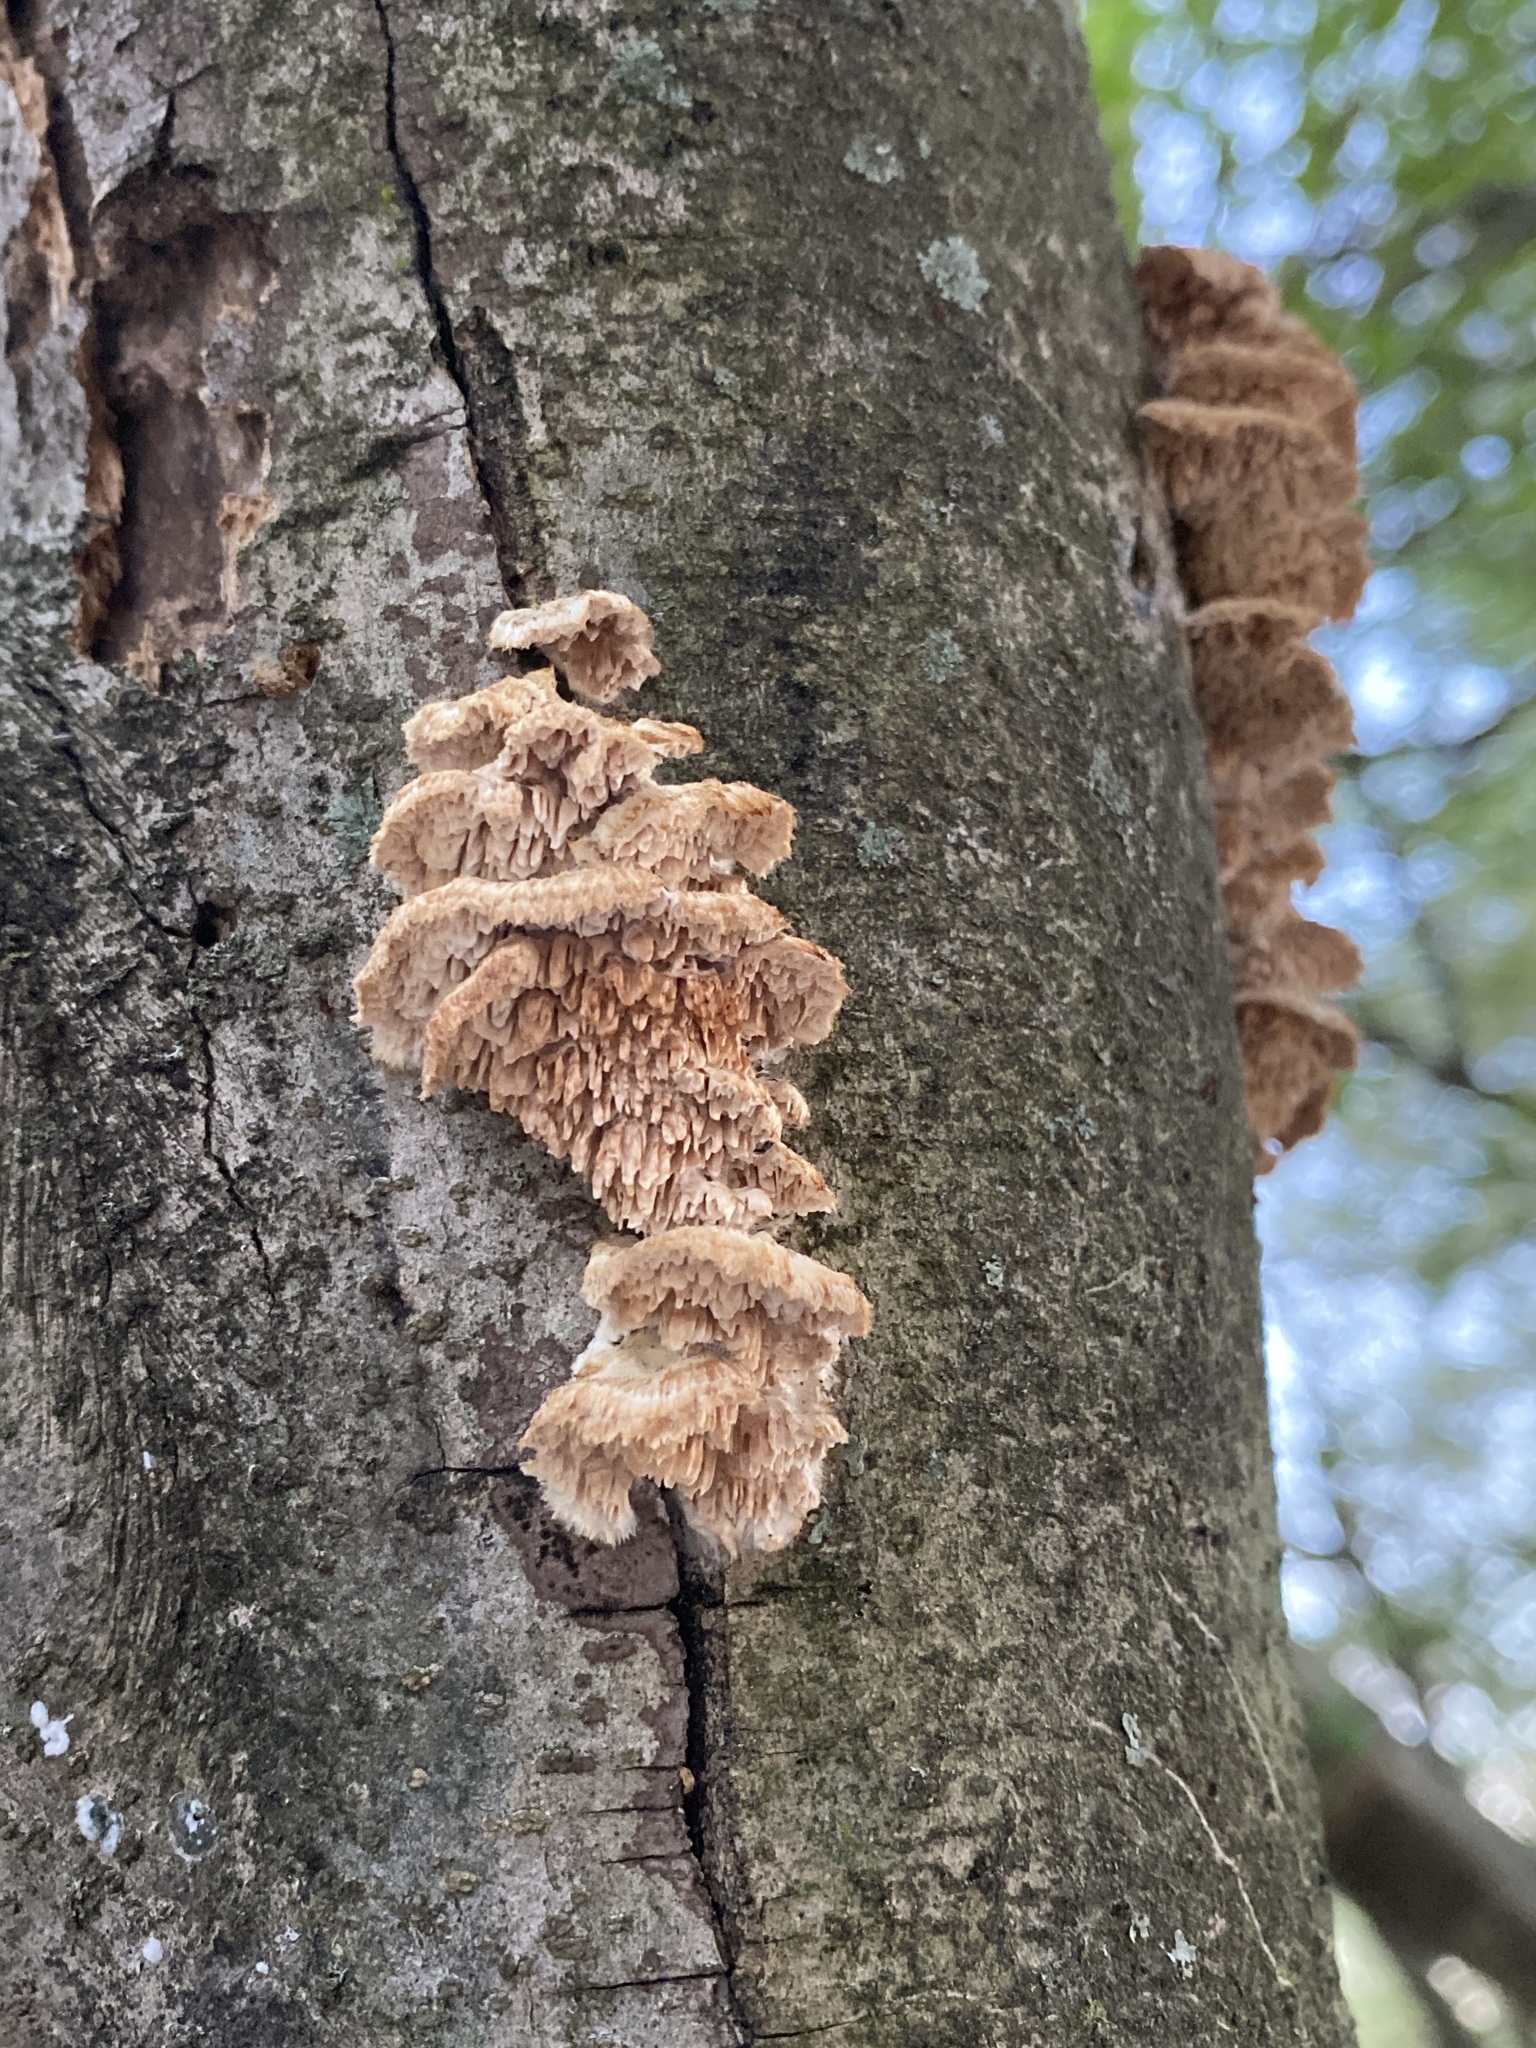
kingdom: Fungi
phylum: Basidiomycota
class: Agaricomycetes
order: Polyporales
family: Meruliaceae
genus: Irpiciporus
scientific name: Irpiciporus pachyodon
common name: Marshmallow polypore
